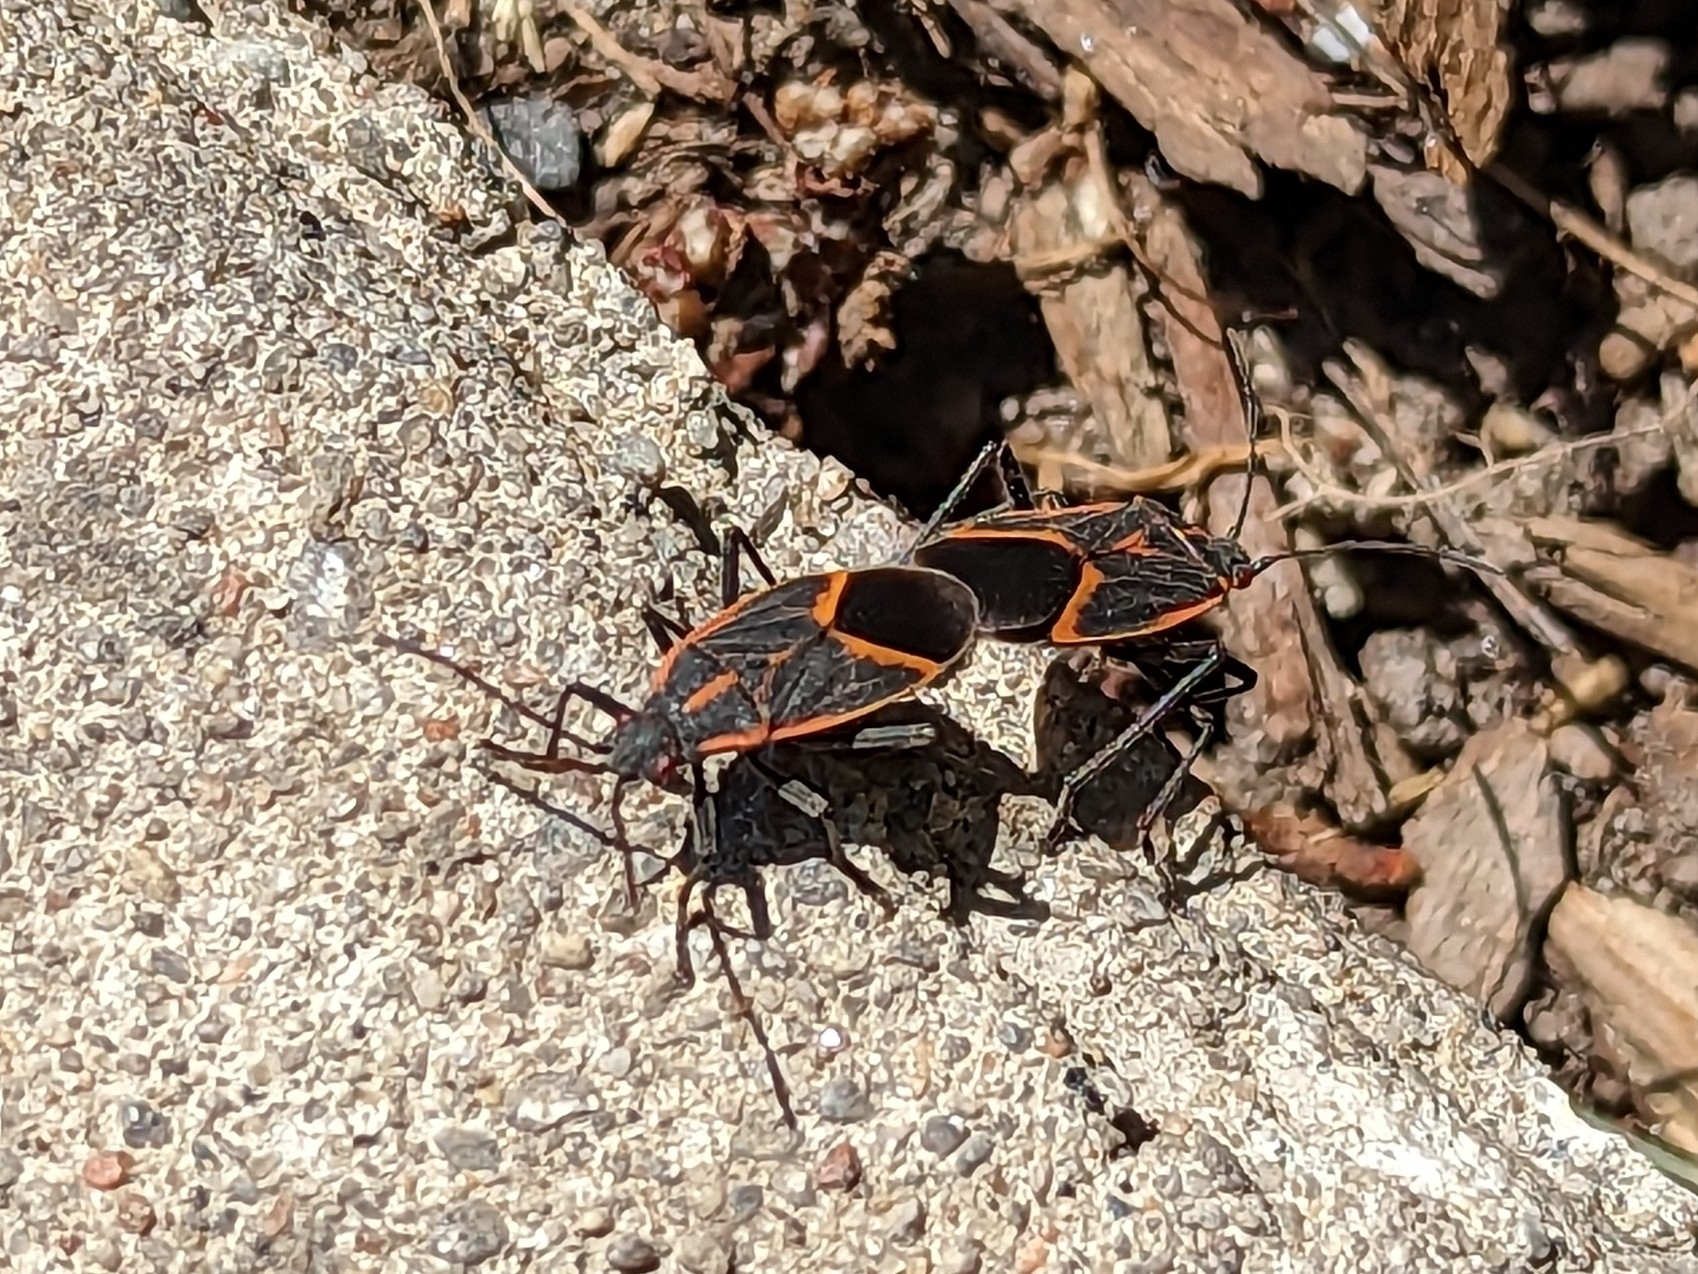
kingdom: Animalia
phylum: Arthropoda
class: Insecta
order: Hemiptera
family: Rhopalidae
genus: Boisea
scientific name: Boisea trivittata
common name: Boxelder bug
